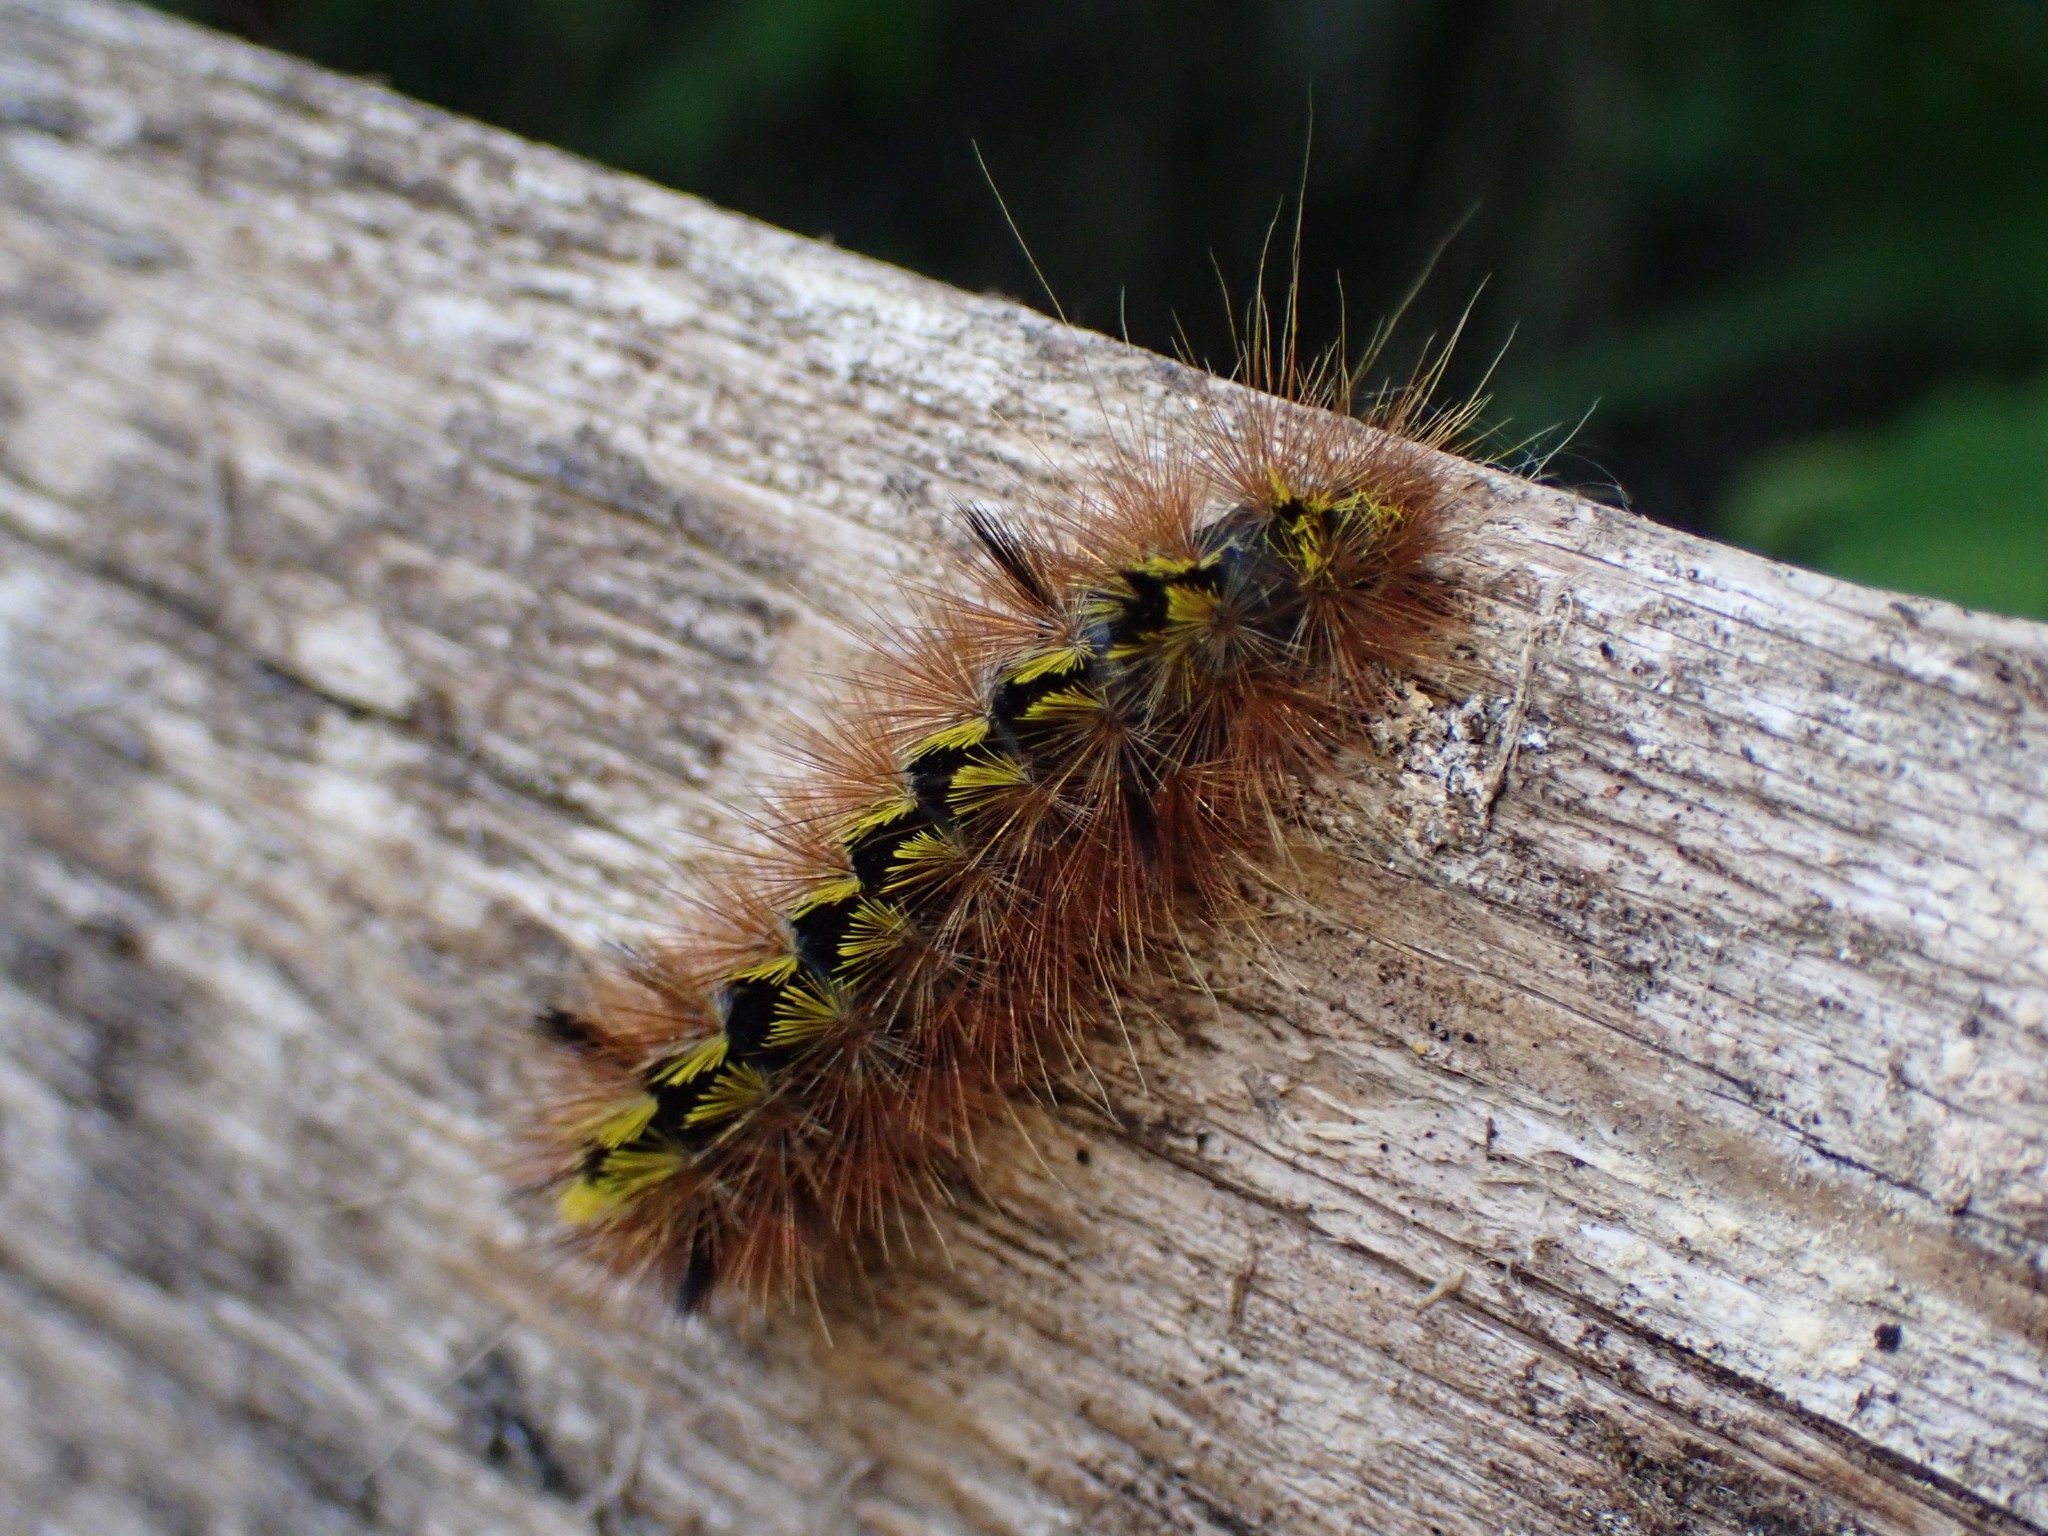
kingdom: Animalia
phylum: Arthropoda
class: Insecta
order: Lepidoptera
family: Erebidae
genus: Lophocampa
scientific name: Lophocampa argentata
